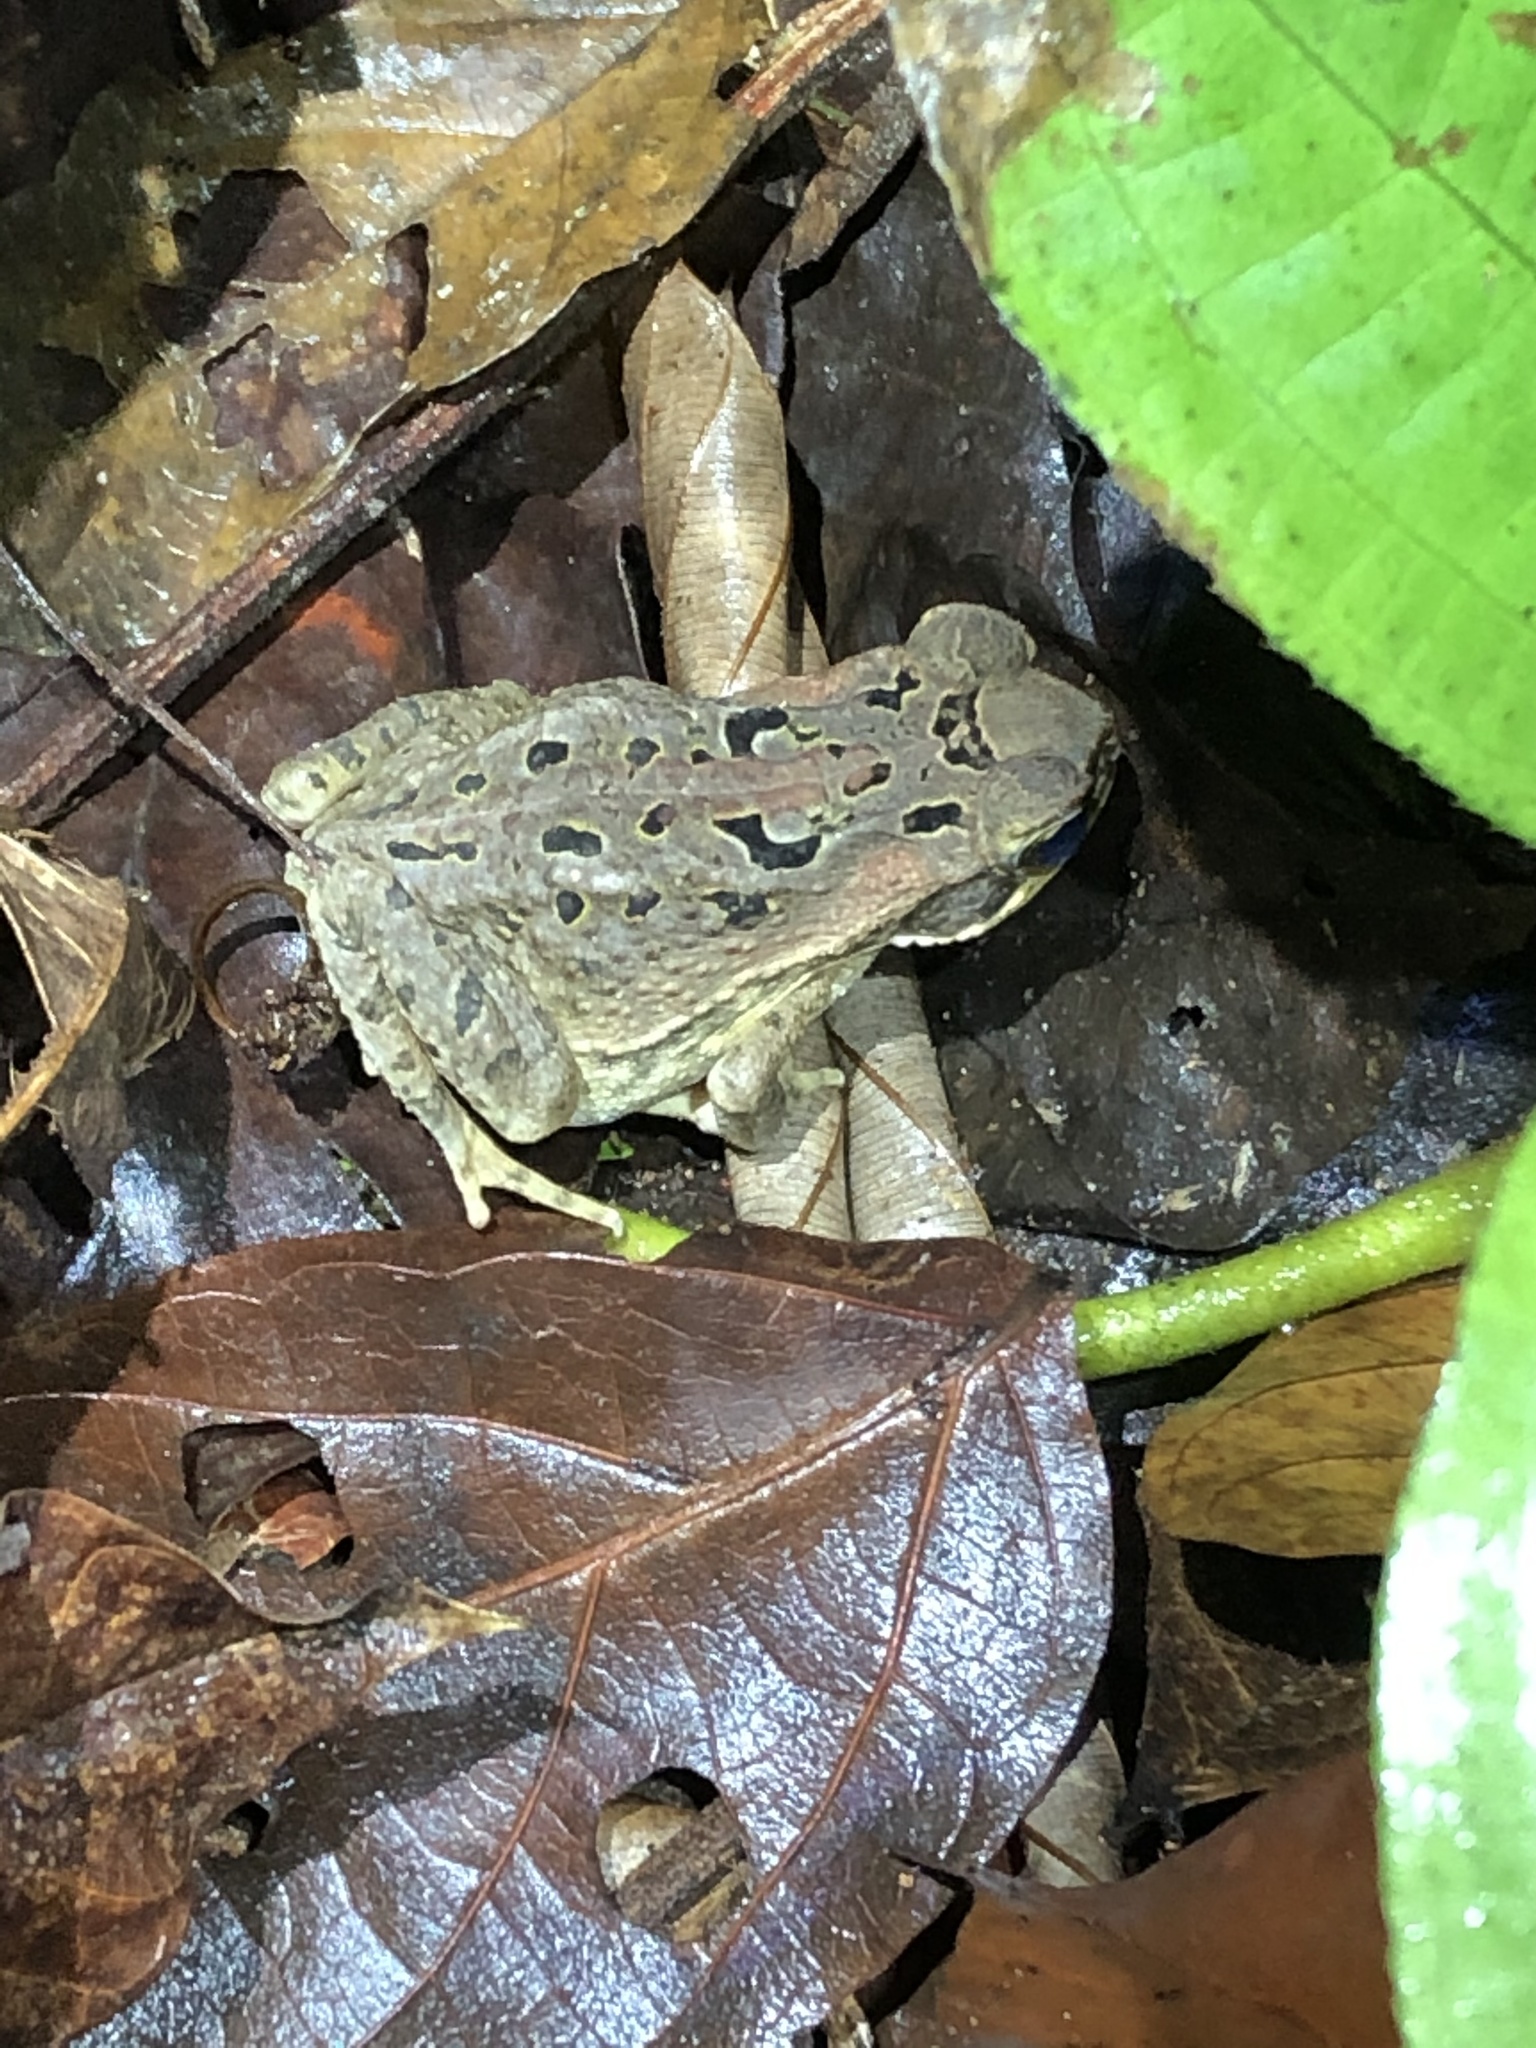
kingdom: Animalia
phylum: Chordata
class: Amphibia
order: Anura
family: Bufonidae
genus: Rhinella
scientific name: Rhinella marina
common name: Cane toad
